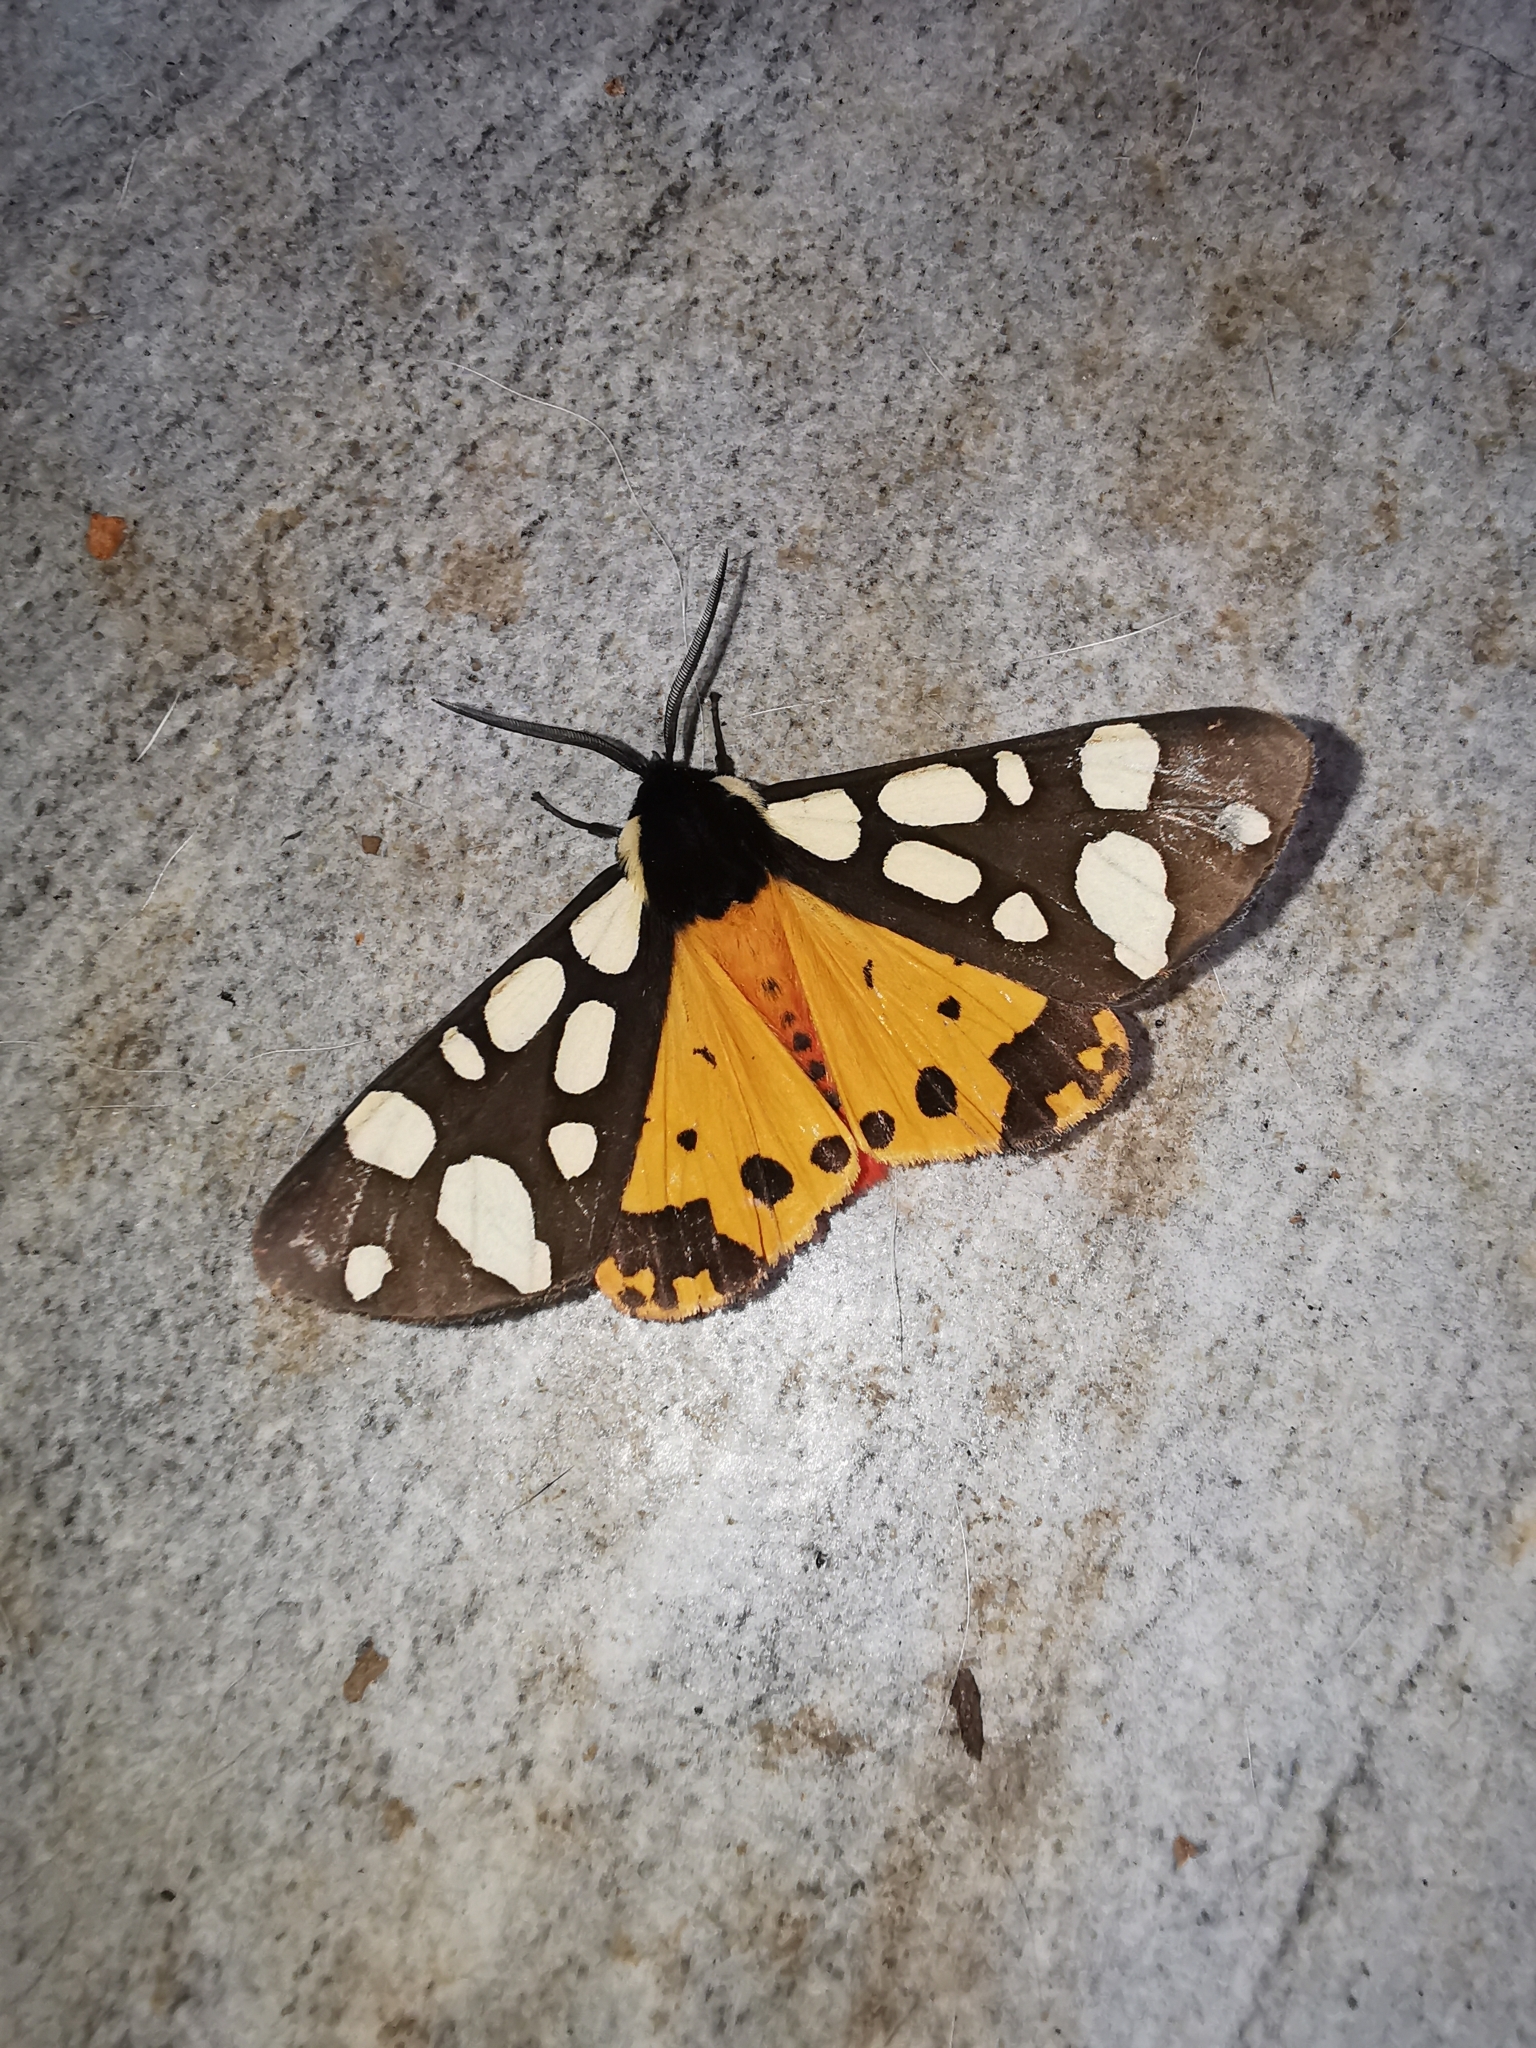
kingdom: Animalia
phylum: Arthropoda
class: Insecta
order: Lepidoptera
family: Erebidae
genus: Epicallia
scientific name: Epicallia villica
